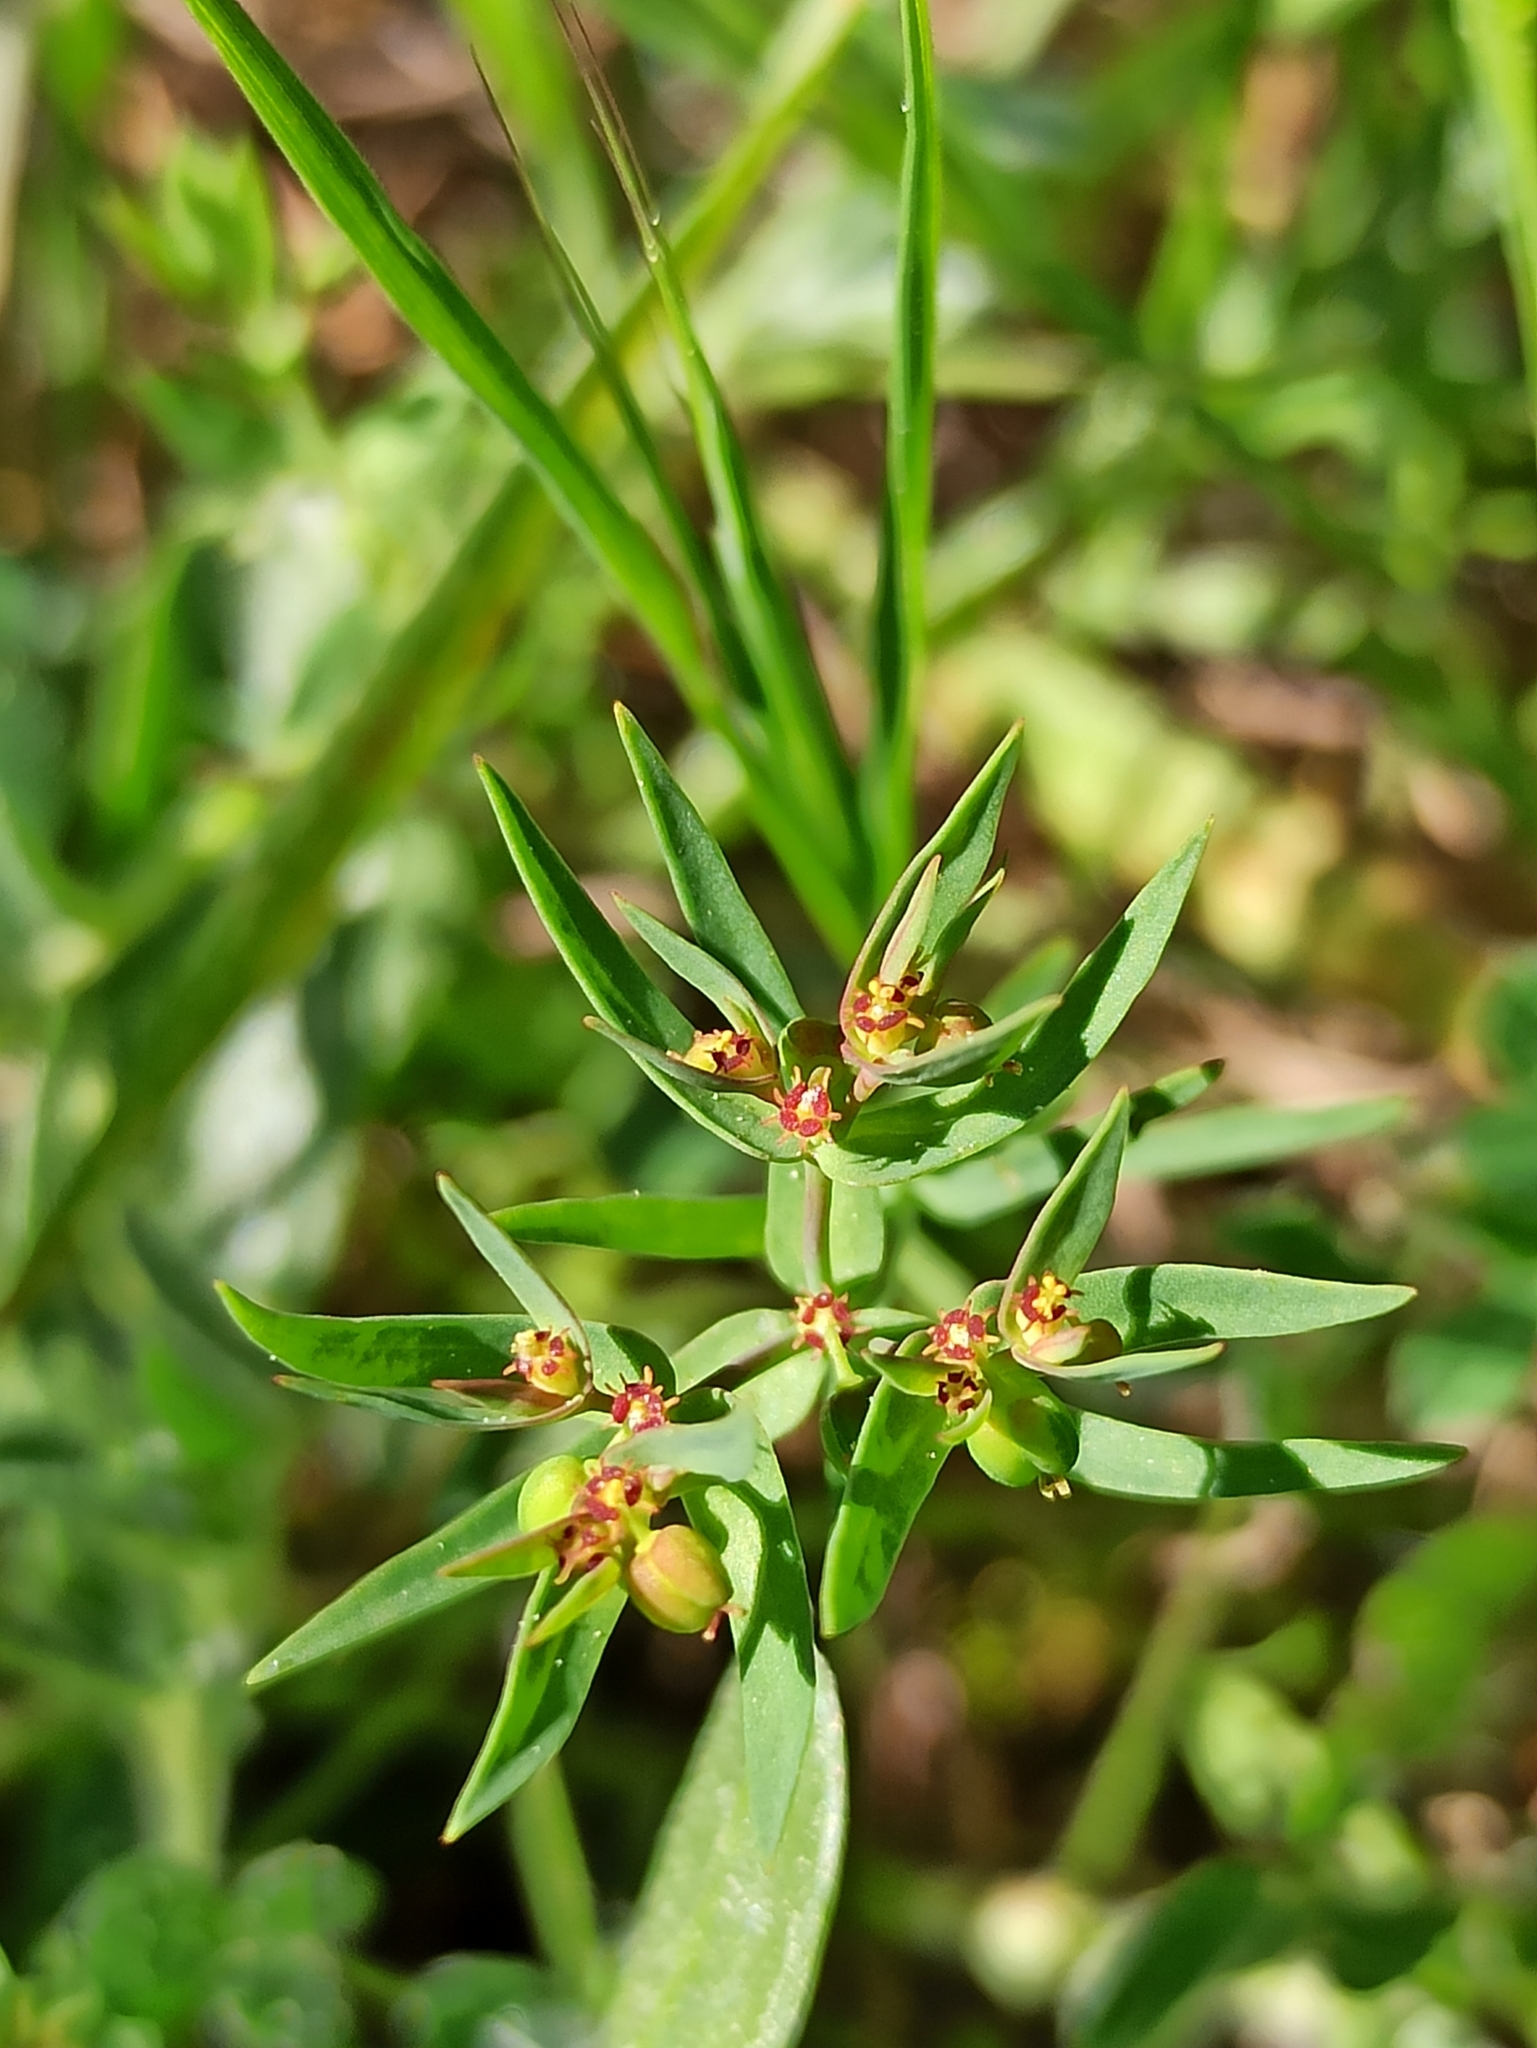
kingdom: Plantae
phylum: Tracheophyta
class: Magnoliopsida
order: Malpighiales
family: Euphorbiaceae
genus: Euphorbia
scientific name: Euphorbia exigua
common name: Dwarf spurge
